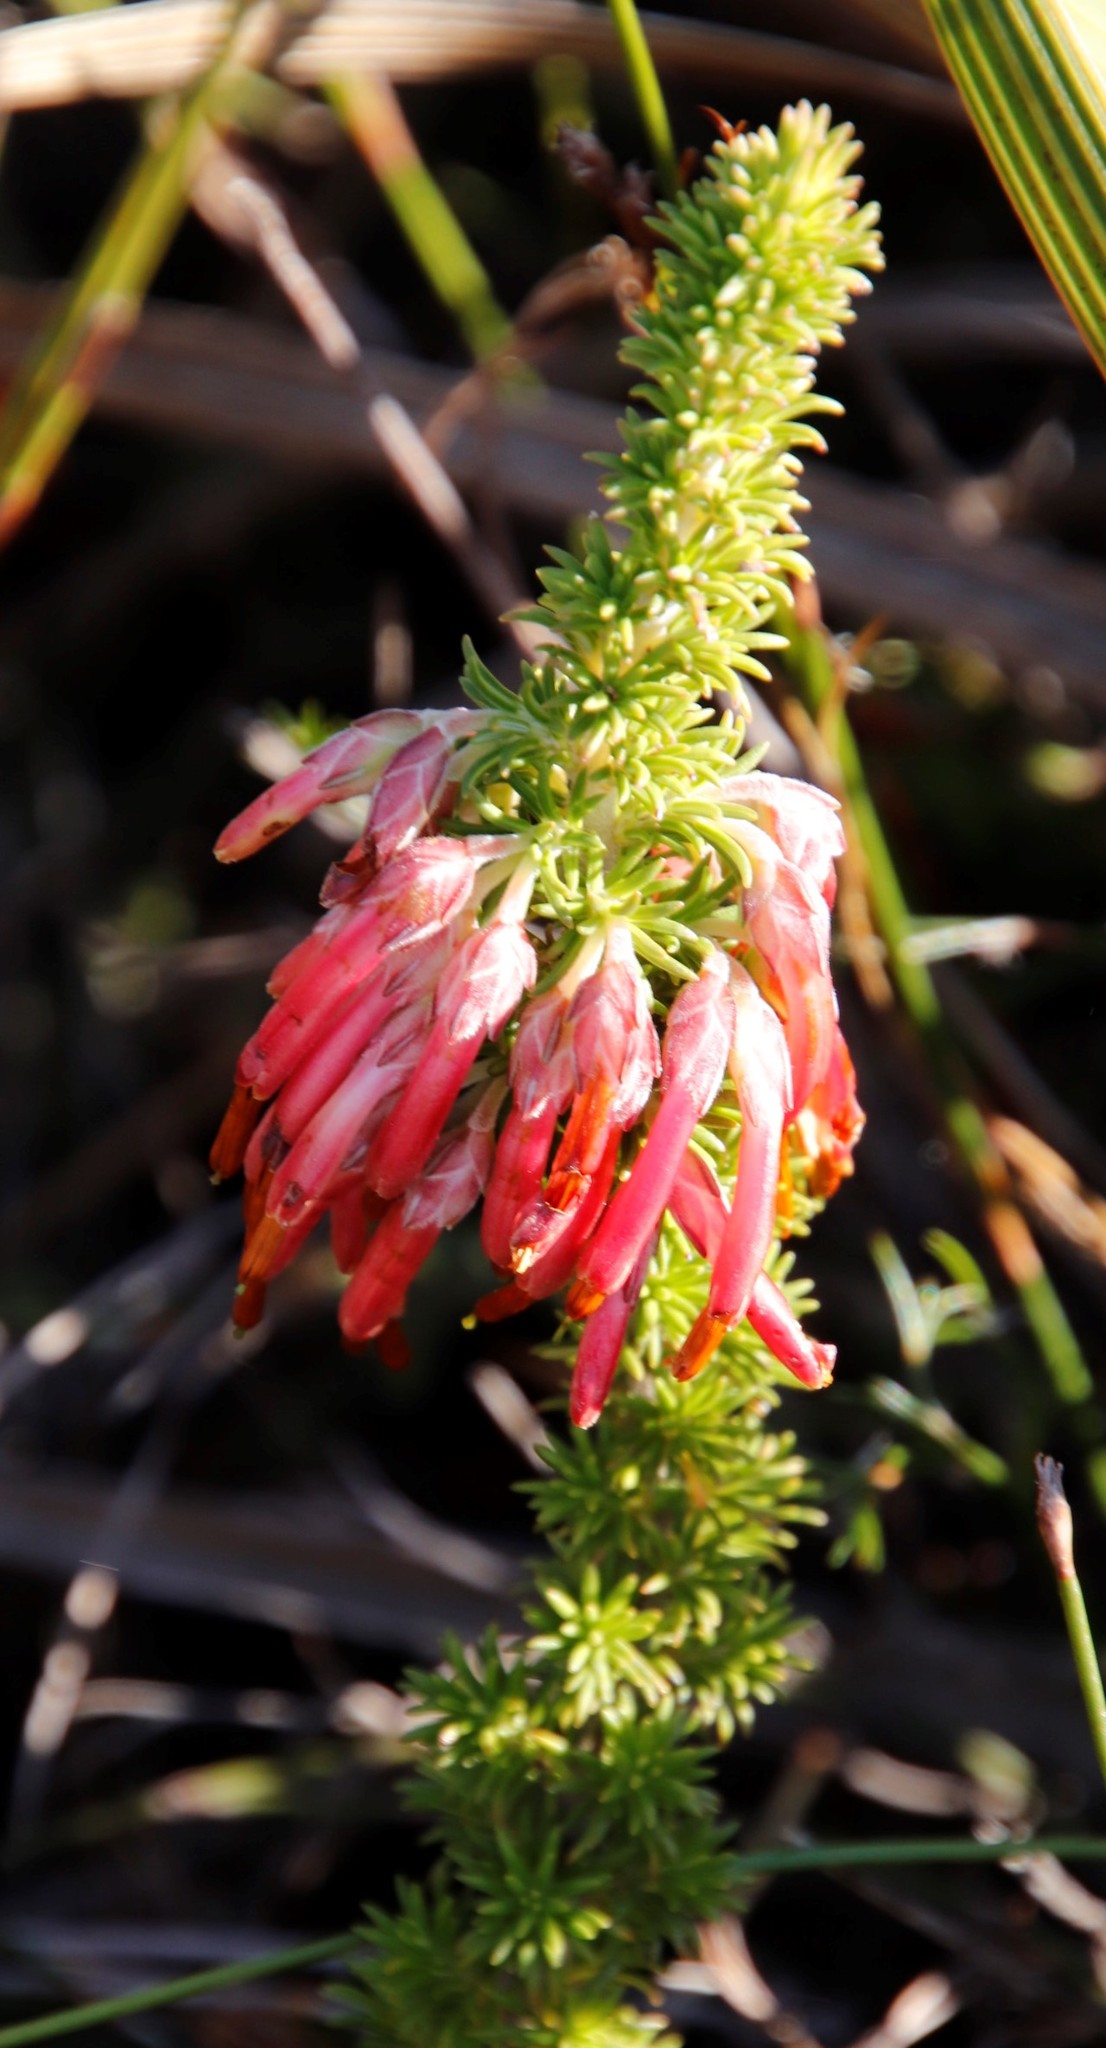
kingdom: Plantae
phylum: Tracheophyta
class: Magnoliopsida
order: Ericales
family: Ericaceae
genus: Erica
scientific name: Erica coccinea
